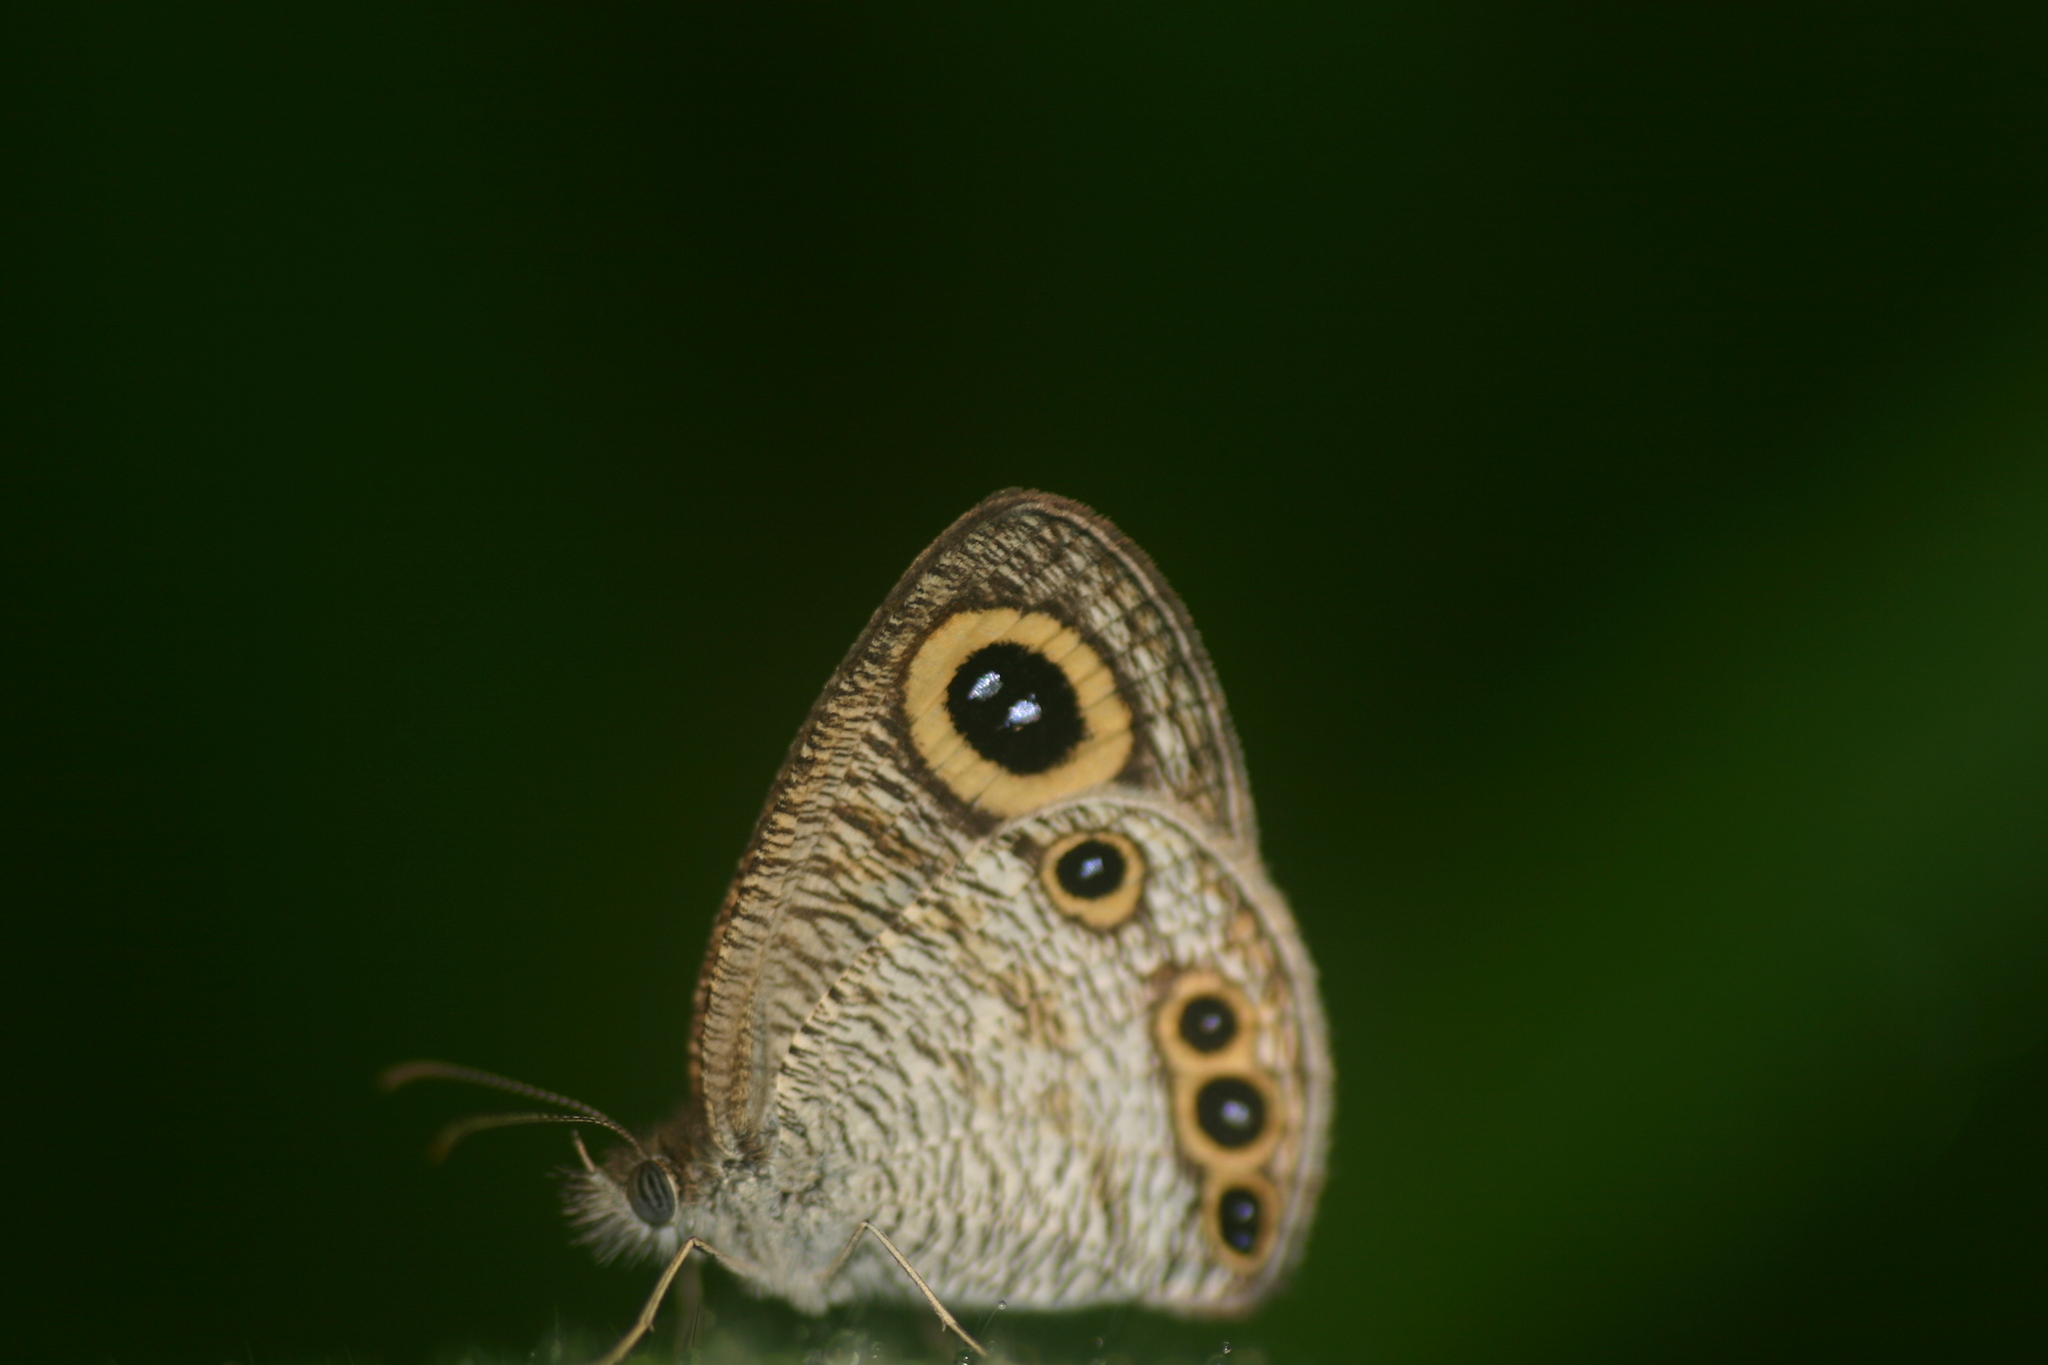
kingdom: Animalia
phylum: Arthropoda
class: Insecta
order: Lepidoptera
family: Nymphalidae
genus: Ypthima
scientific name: Ypthima huebneri
